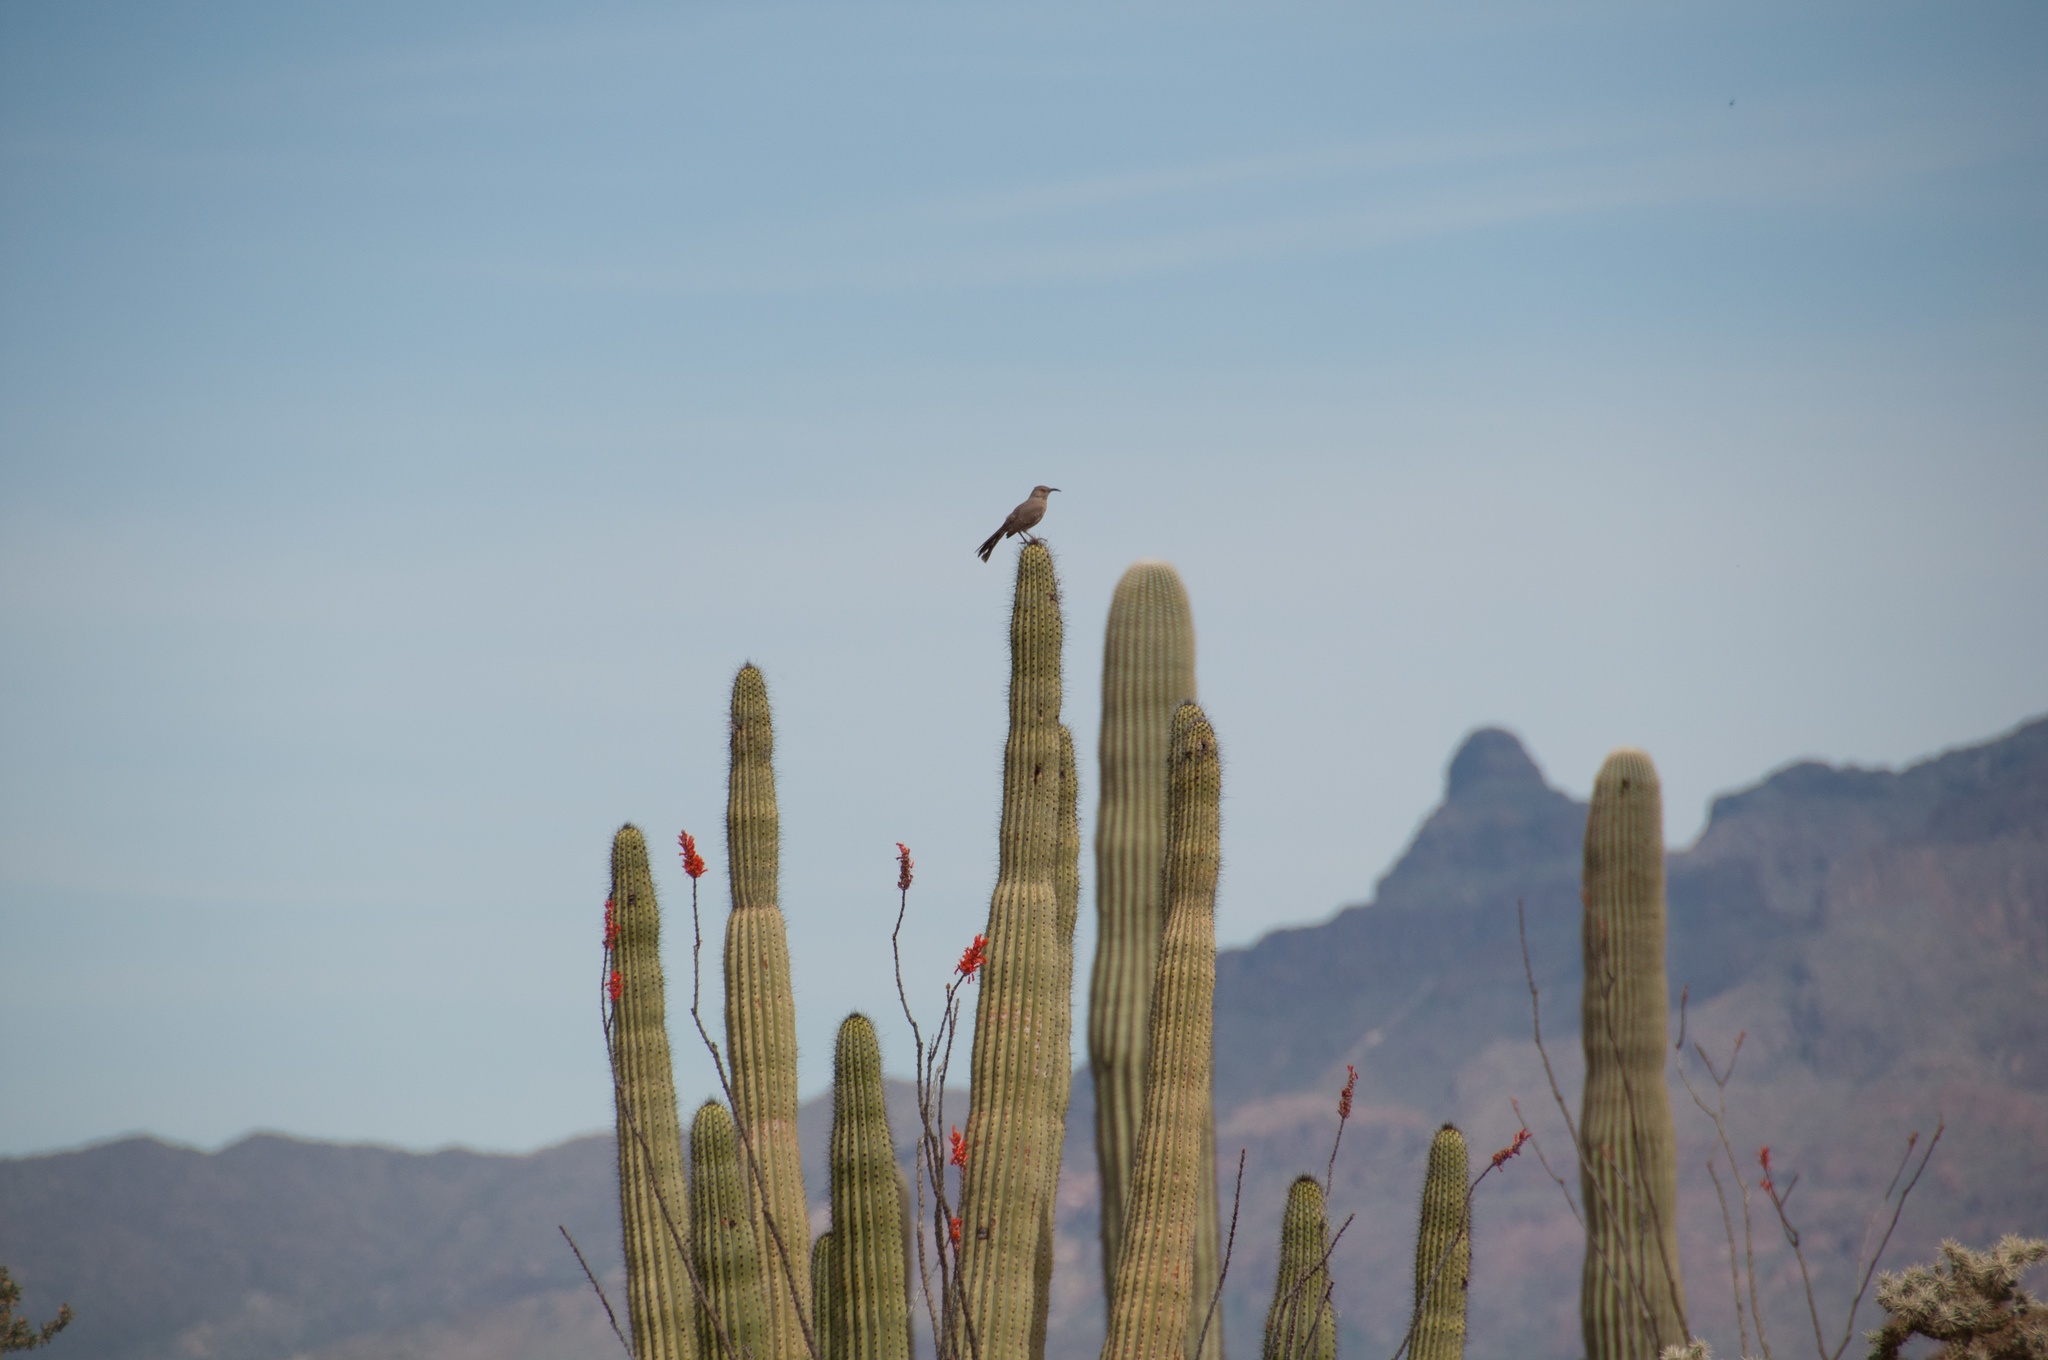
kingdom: Animalia
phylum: Chordata
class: Aves
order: Passeriformes
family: Mimidae
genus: Toxostoma
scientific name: Toxostoma curvirostre
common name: Curve-billed thrasher
